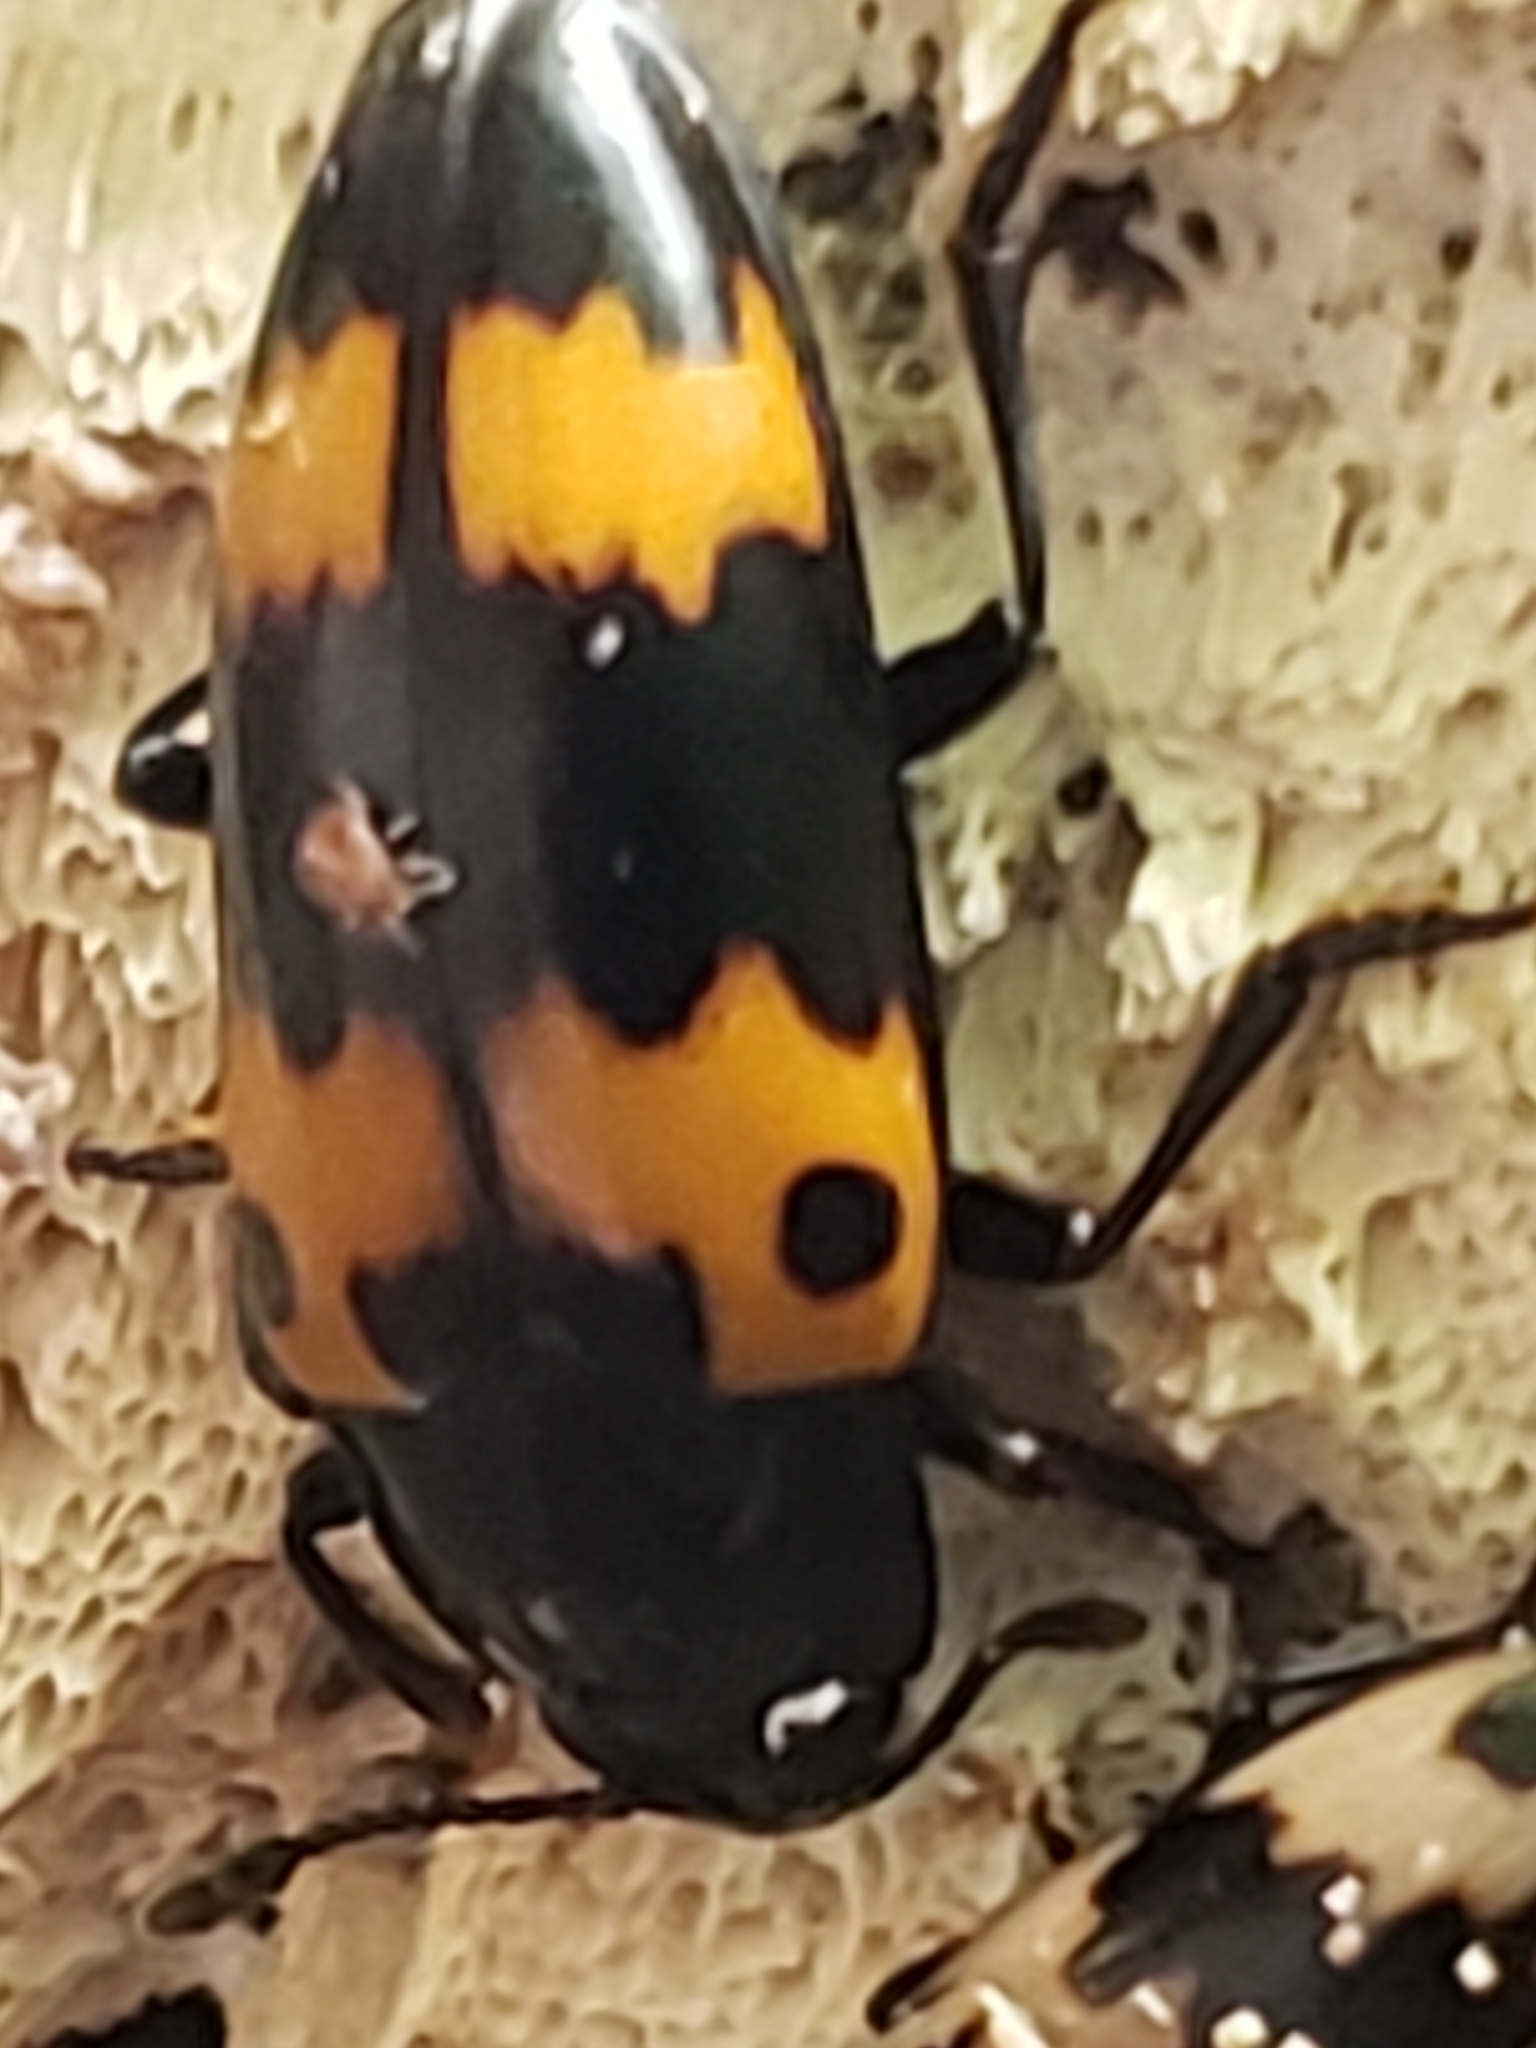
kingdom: Animalia
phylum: Arthropoda
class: Insecta
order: Coleoptera
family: Erotylidae
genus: Megalodacne
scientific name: Megalodacne fasciata
